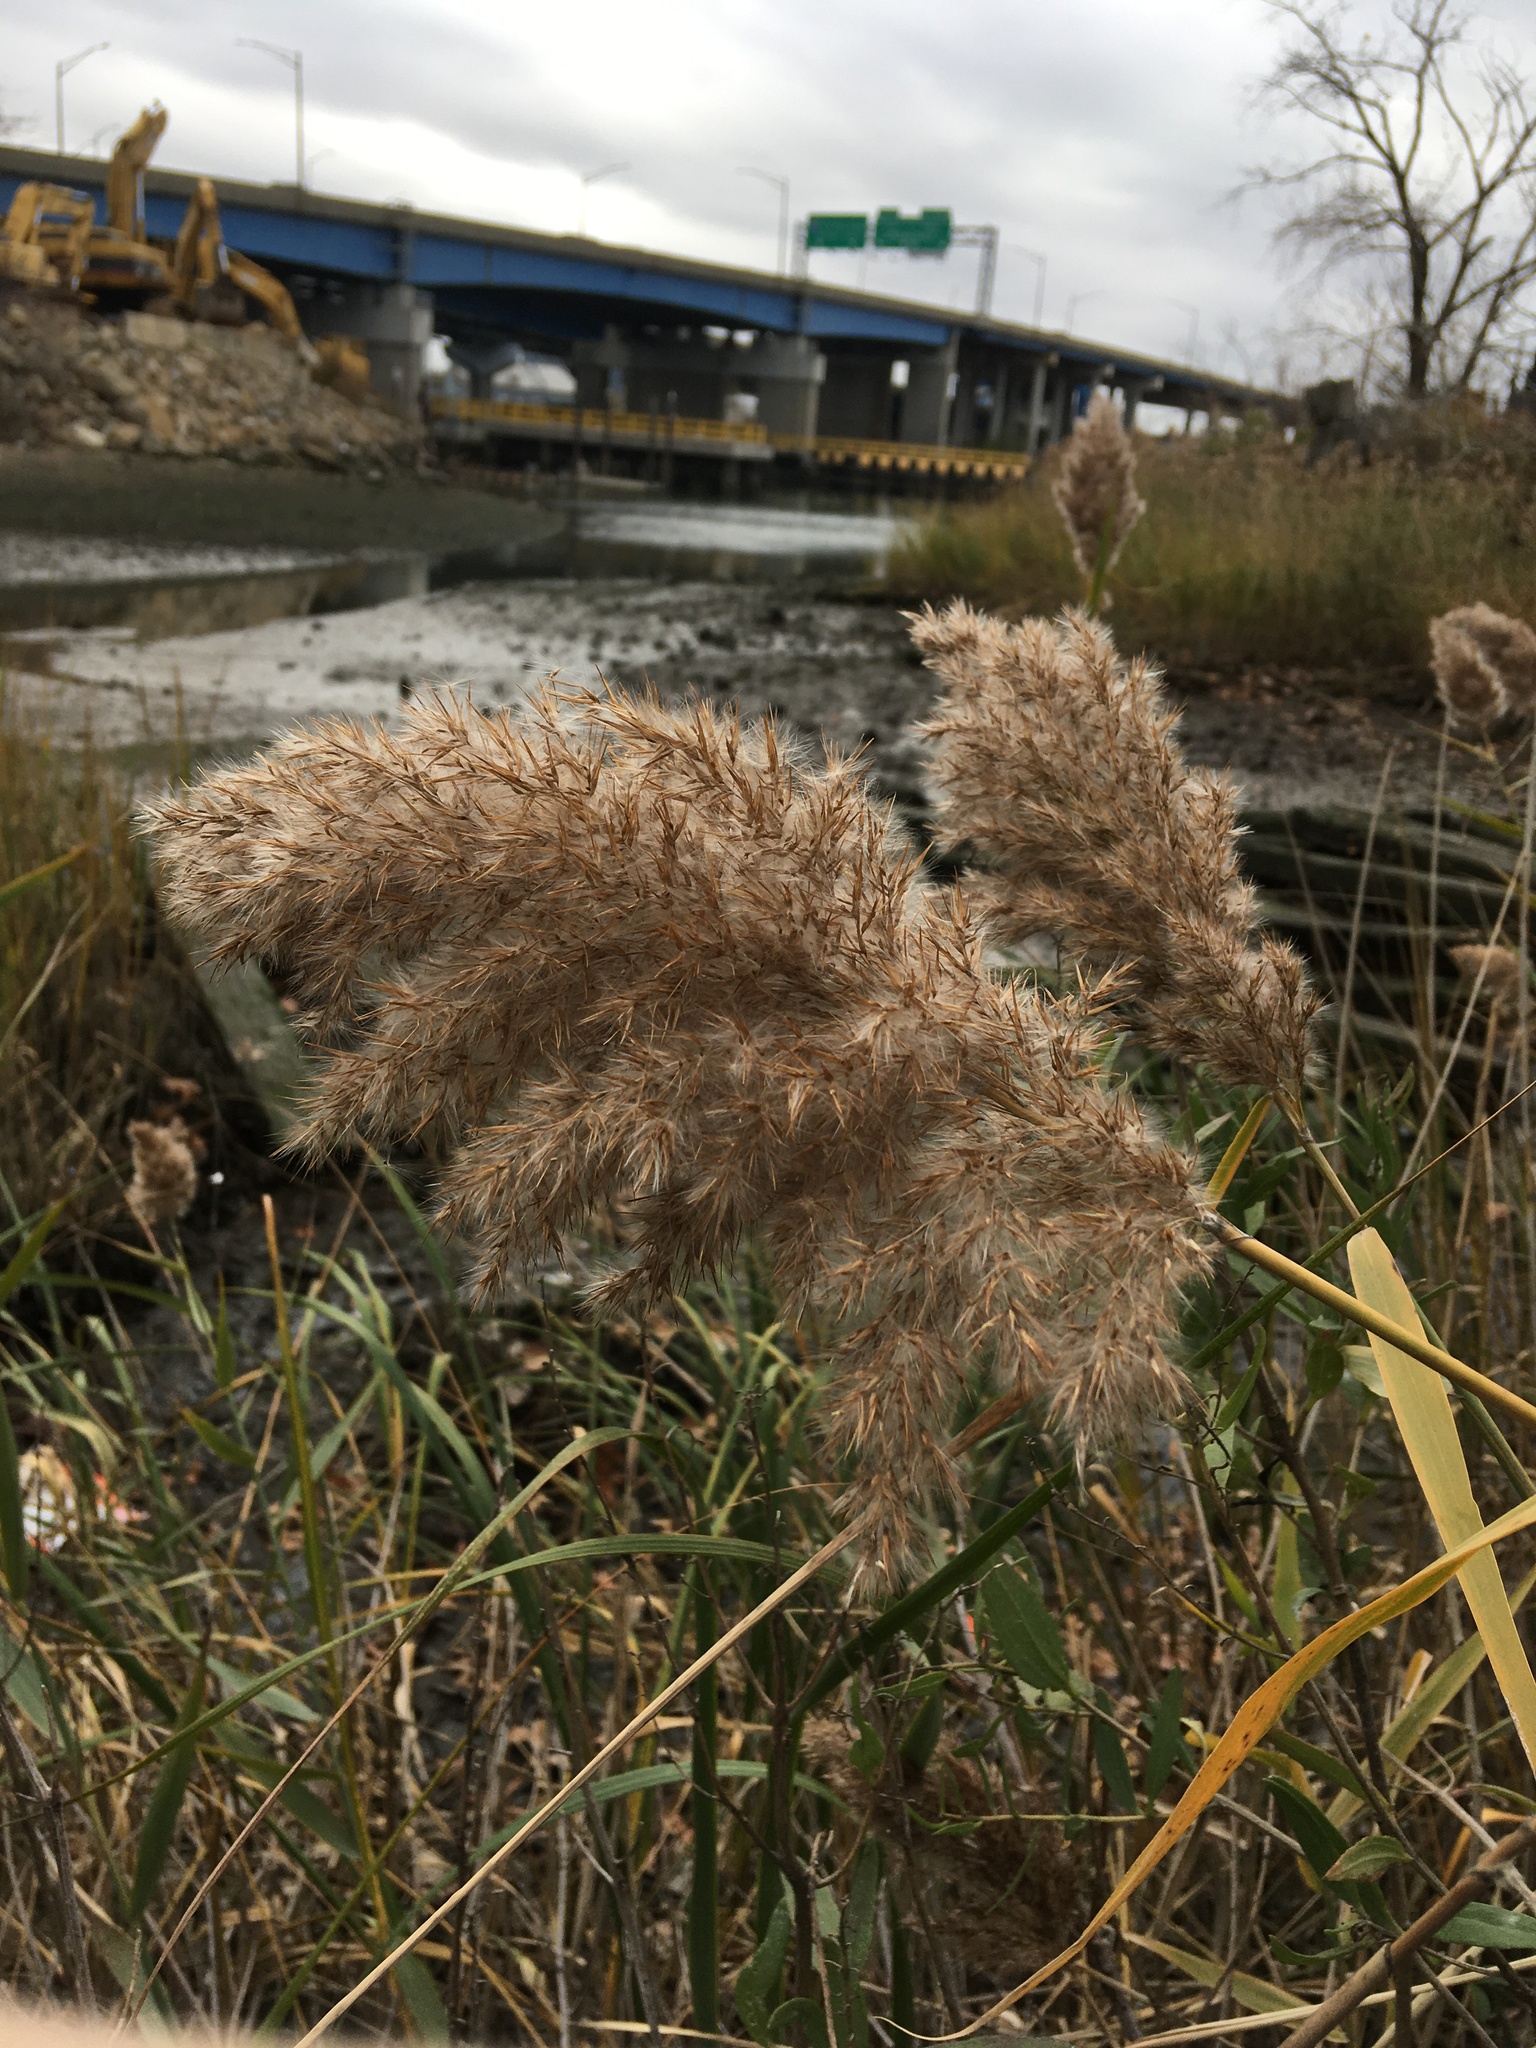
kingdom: Plantae
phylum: Tracheophyta
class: Liliopsida
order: Poales
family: Poaceae
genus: Phragmites
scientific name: Phragmites australis
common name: Common reed
